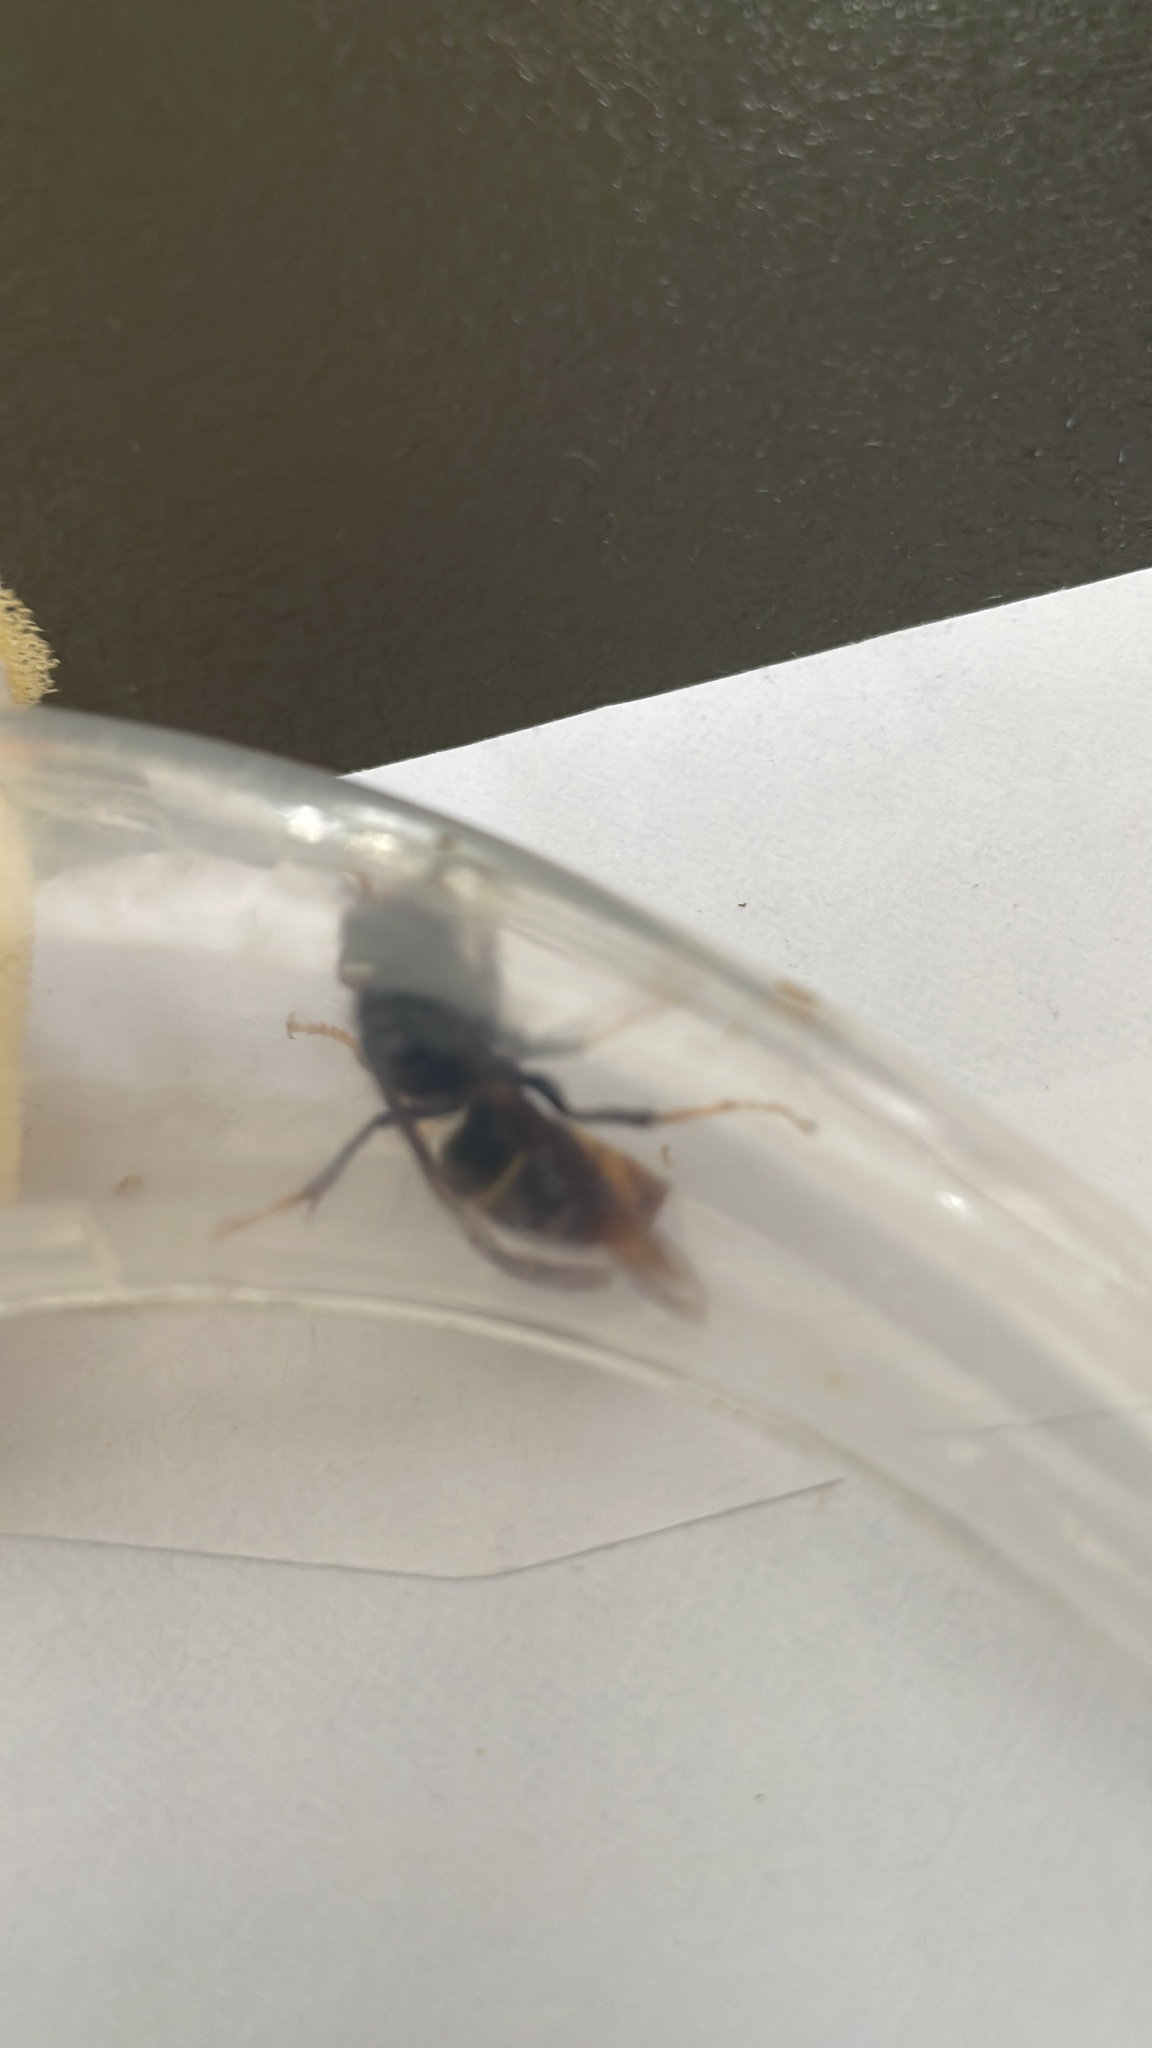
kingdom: Animalia
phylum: Arthropoda
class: Insecta
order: Hymenoptera
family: Vespidae
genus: Vespa
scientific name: Vespa velutina
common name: Asian hornet
